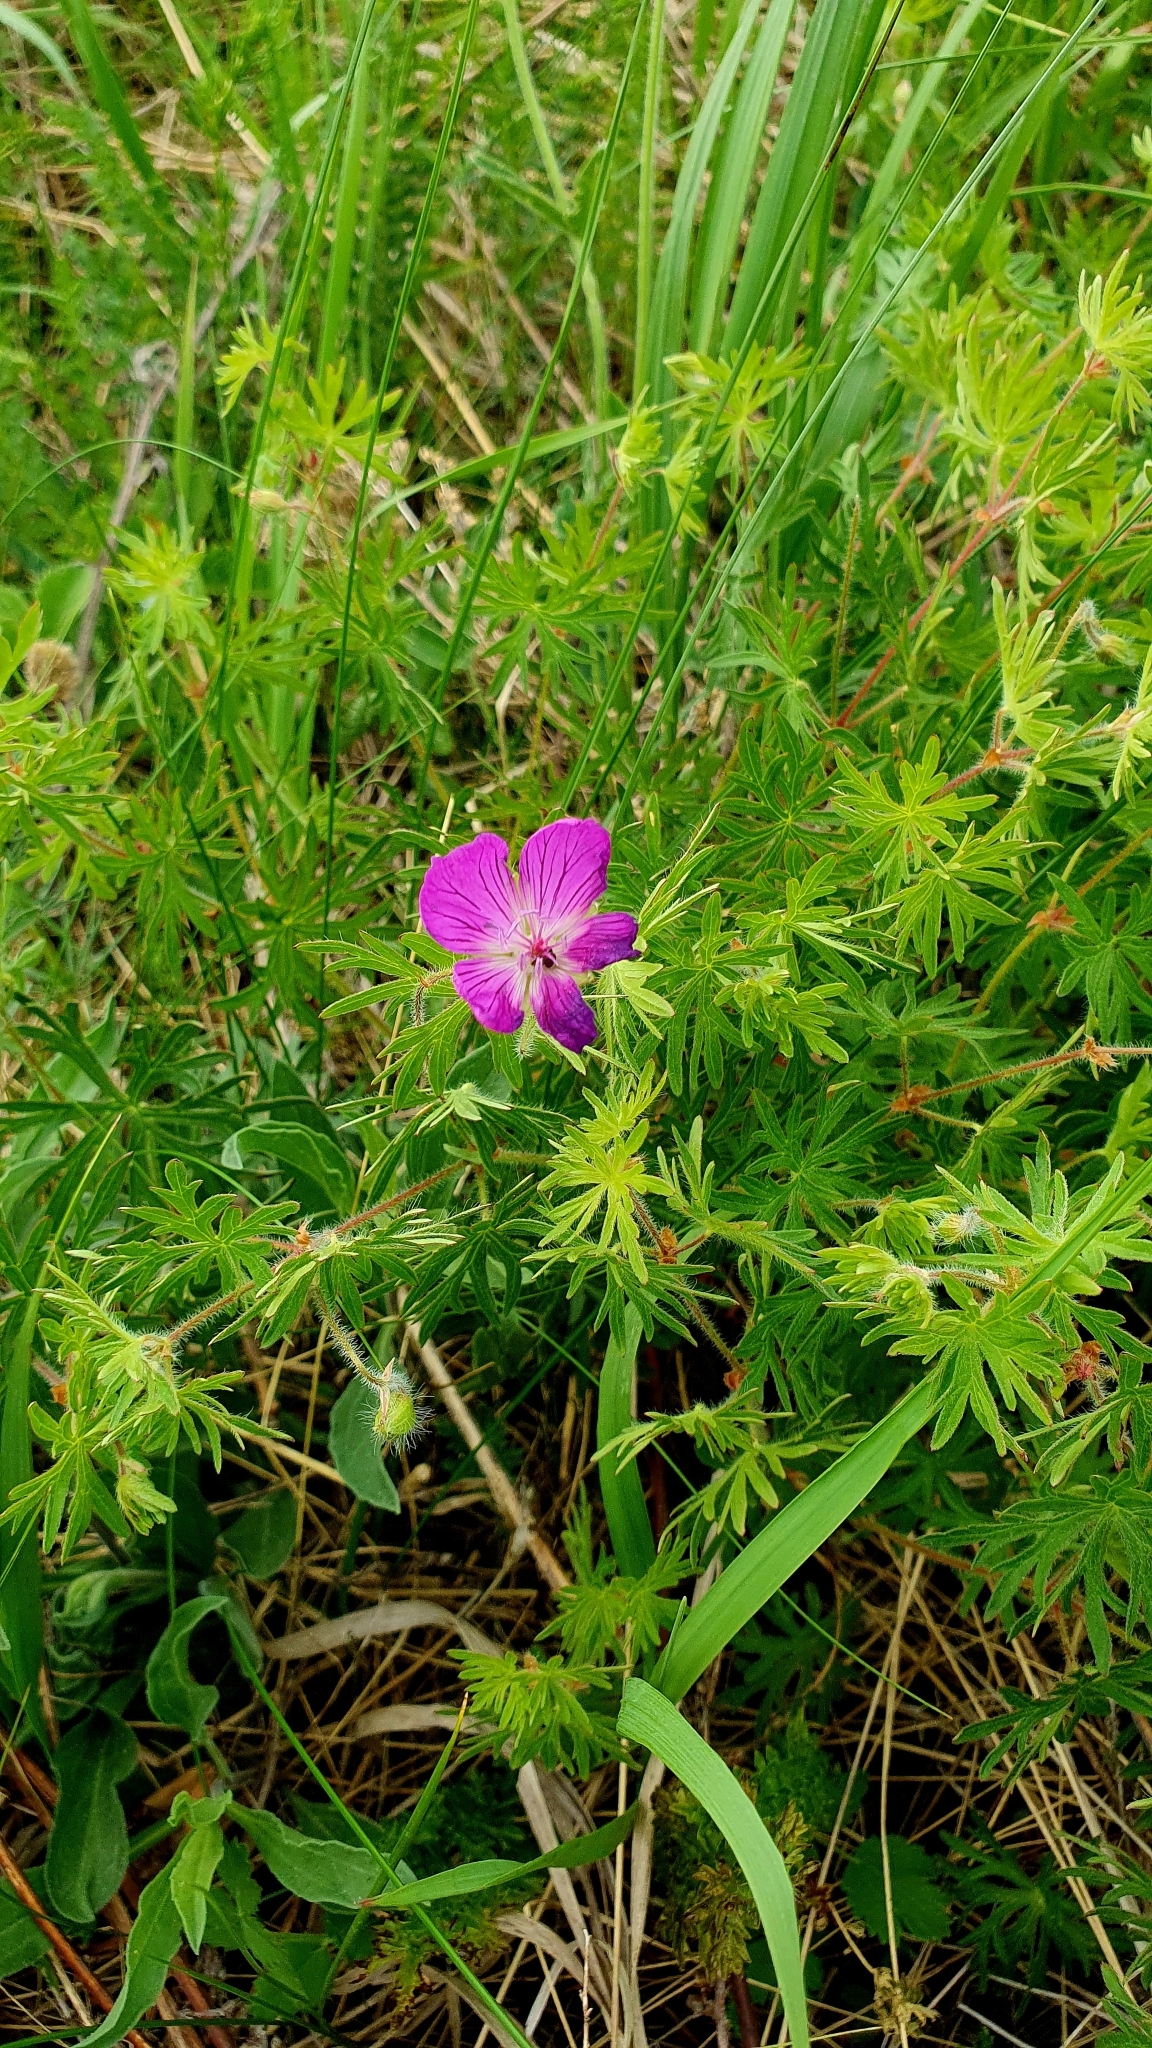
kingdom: Plantae
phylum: Tracheophyta
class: Magnoliopsida
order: Geraniales
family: Geraniaceae
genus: Geranium
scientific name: Geranium sanguineum
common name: Bloody crane's-bill
